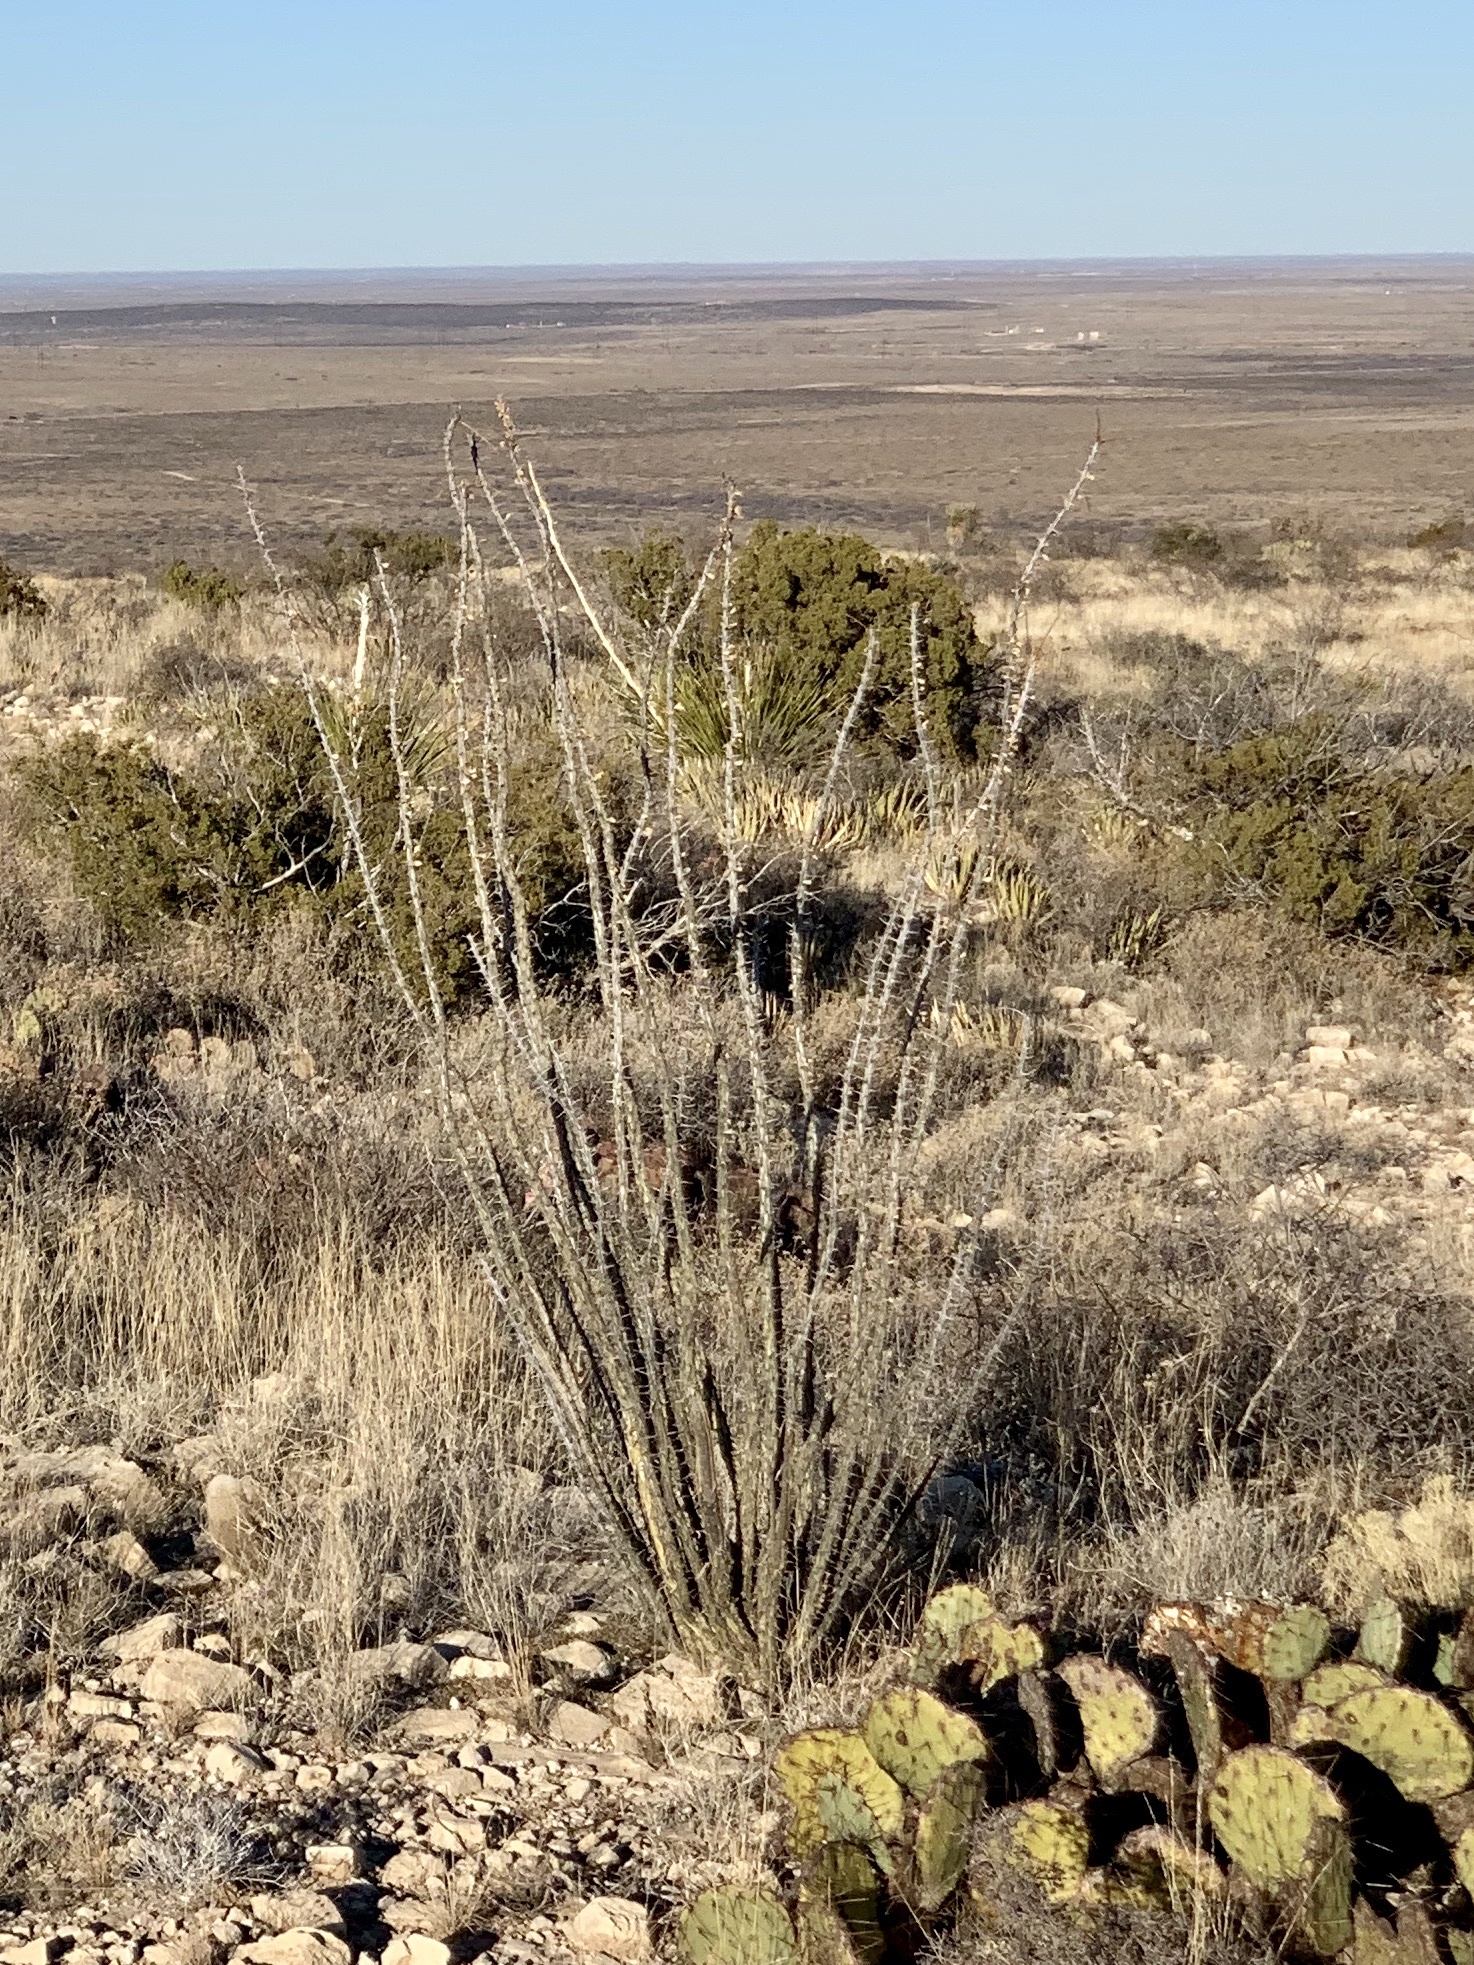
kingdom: Plantae
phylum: Tracheophyta
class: Magnoliopsida
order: Ericales
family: Fouquieriaceae
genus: Fouquieria
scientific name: Fouquieria splendens
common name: Vine-cactus
